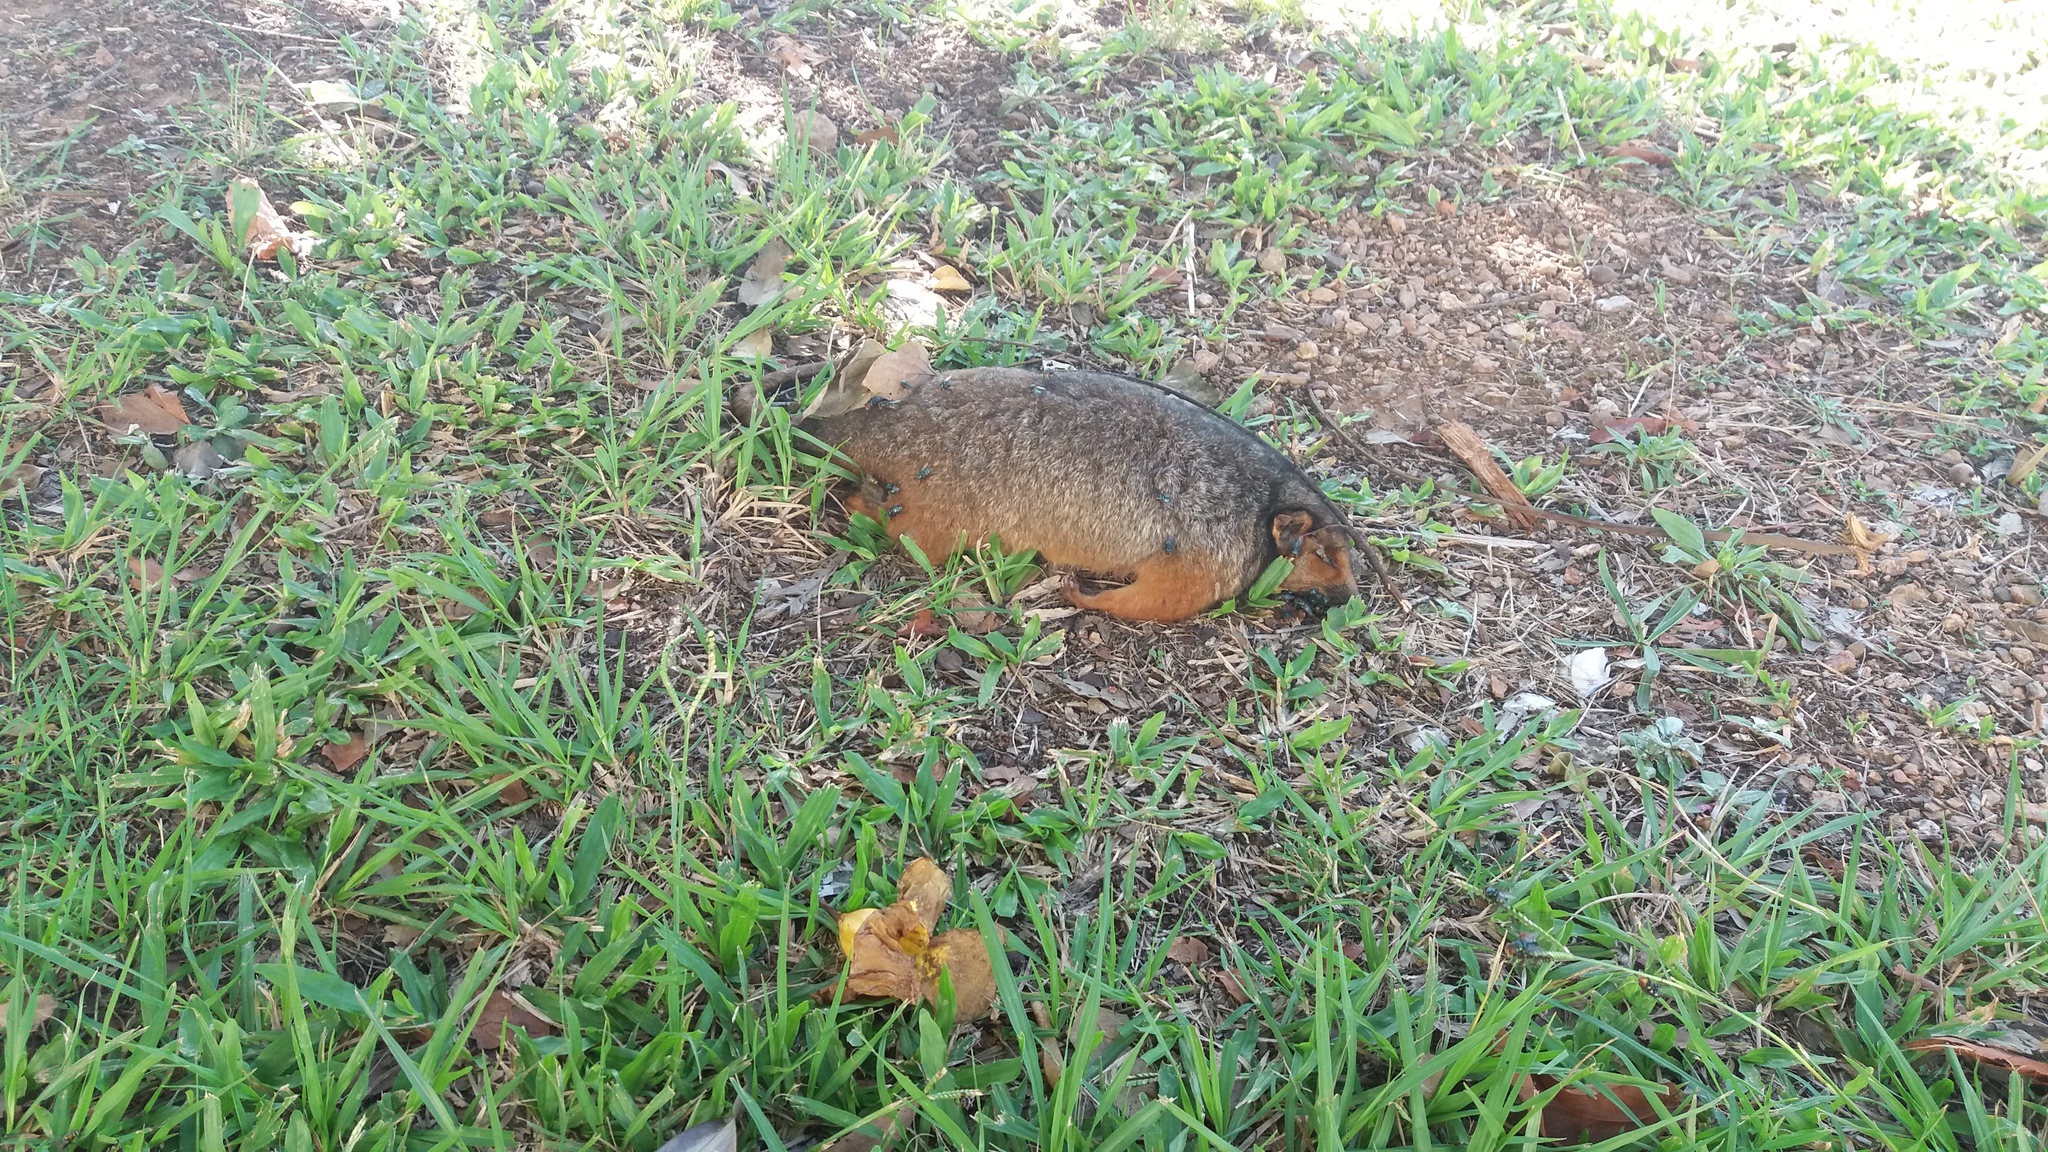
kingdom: Animalia
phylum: Chordata
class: Mammalia
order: Diprotodontia
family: Pseudocheiridae
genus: Pseudocheirus
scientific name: Pseudocheirus peregrinus
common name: Common ringtail possum
